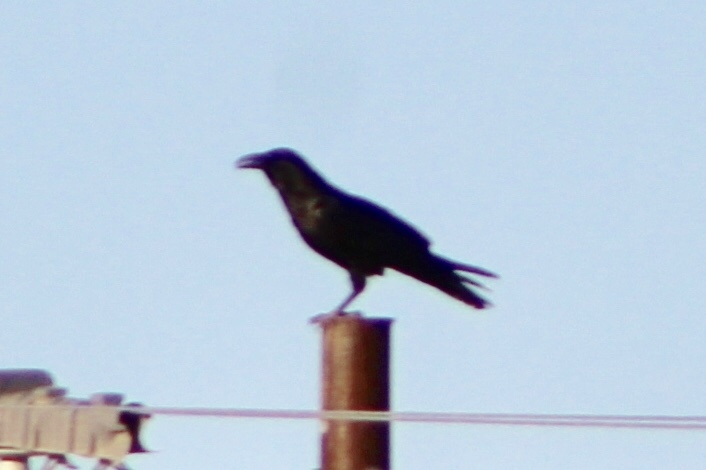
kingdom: Animalia
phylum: Chordata
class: Aves
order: Passeriformes
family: Corvidae
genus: Corvus
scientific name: Corvus corax
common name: Common raven
